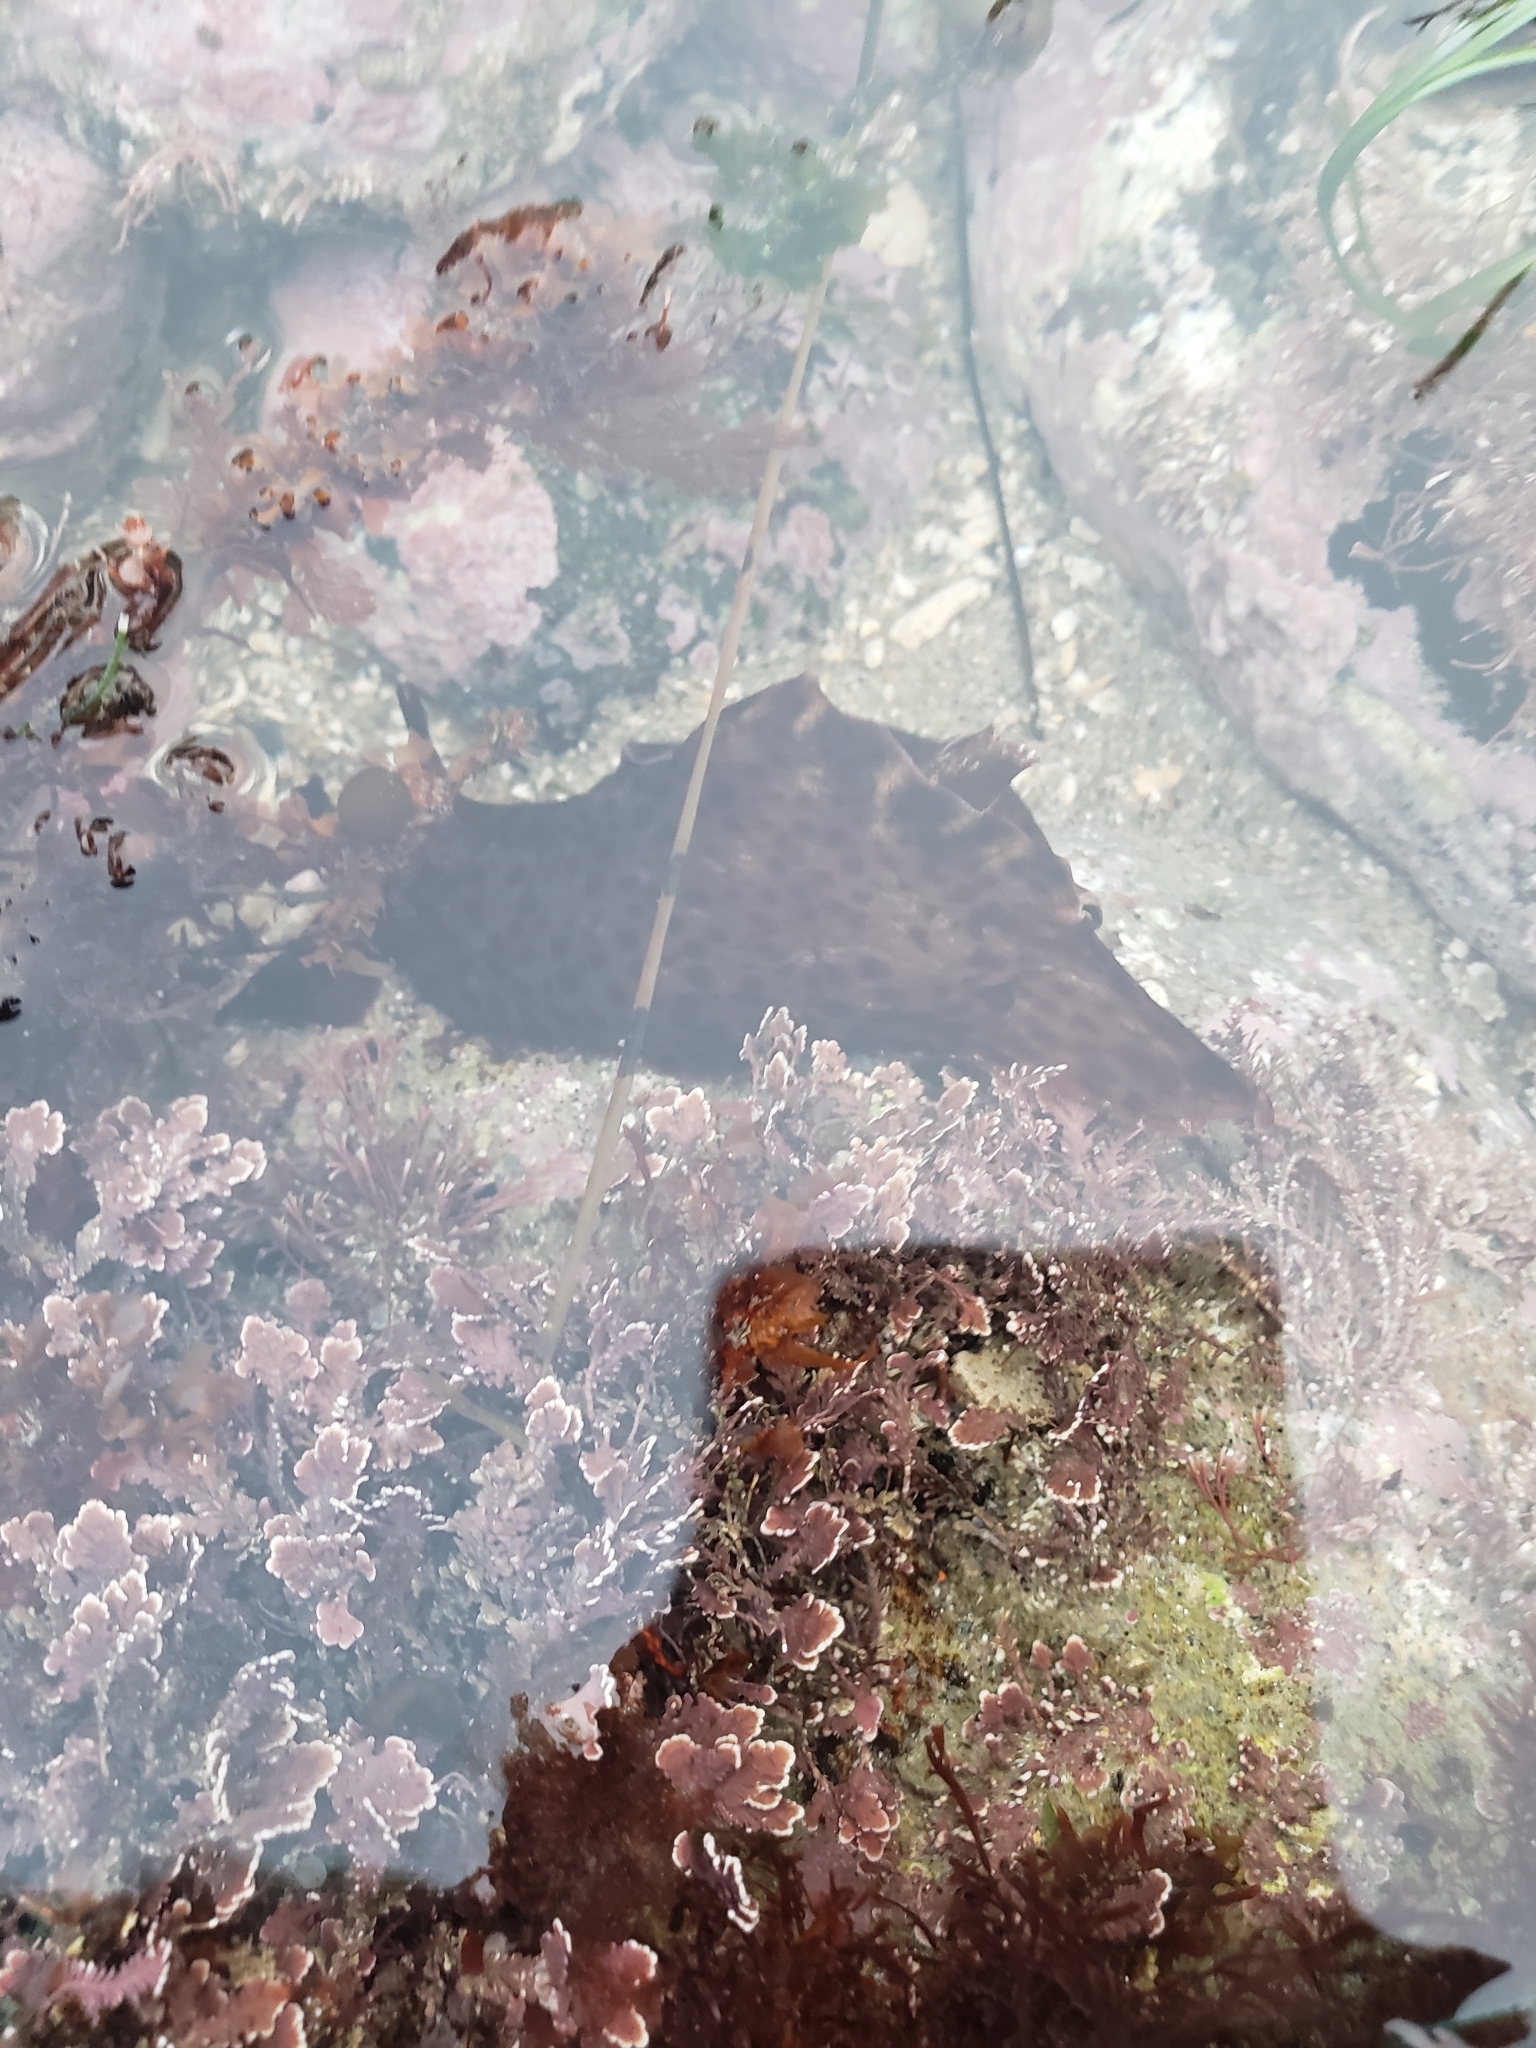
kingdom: Animalia
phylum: Mollusca
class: Gastropoda
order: Aplysiida
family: Aplysiidae
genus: Aplysia
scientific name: Aplysia californica
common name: California seahare
